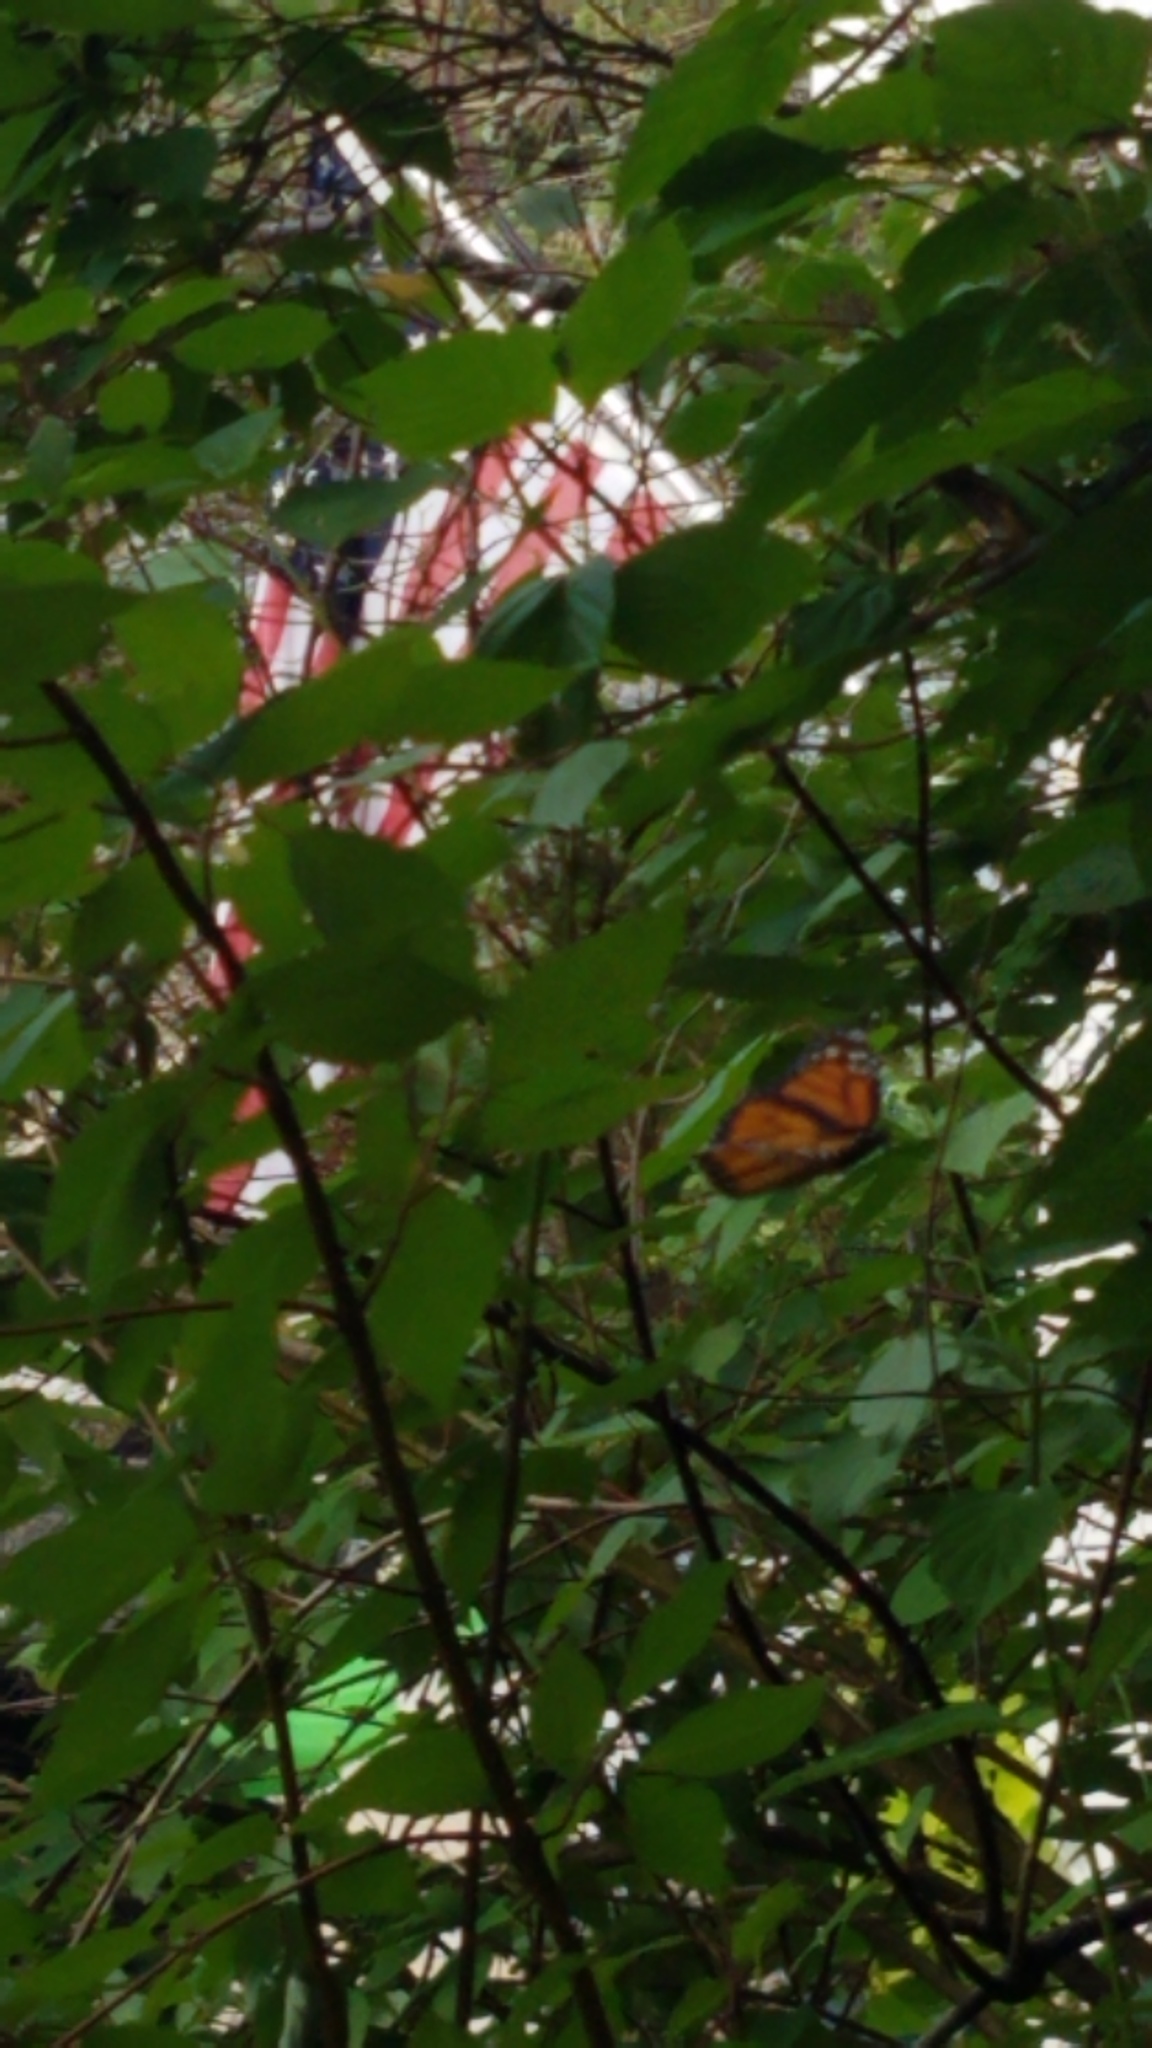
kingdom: Animalia
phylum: Arthropoda
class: Insecta
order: Lepidoptera
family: Nymphalidae
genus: Danaus
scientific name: Danaus plexippus
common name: Monarch
